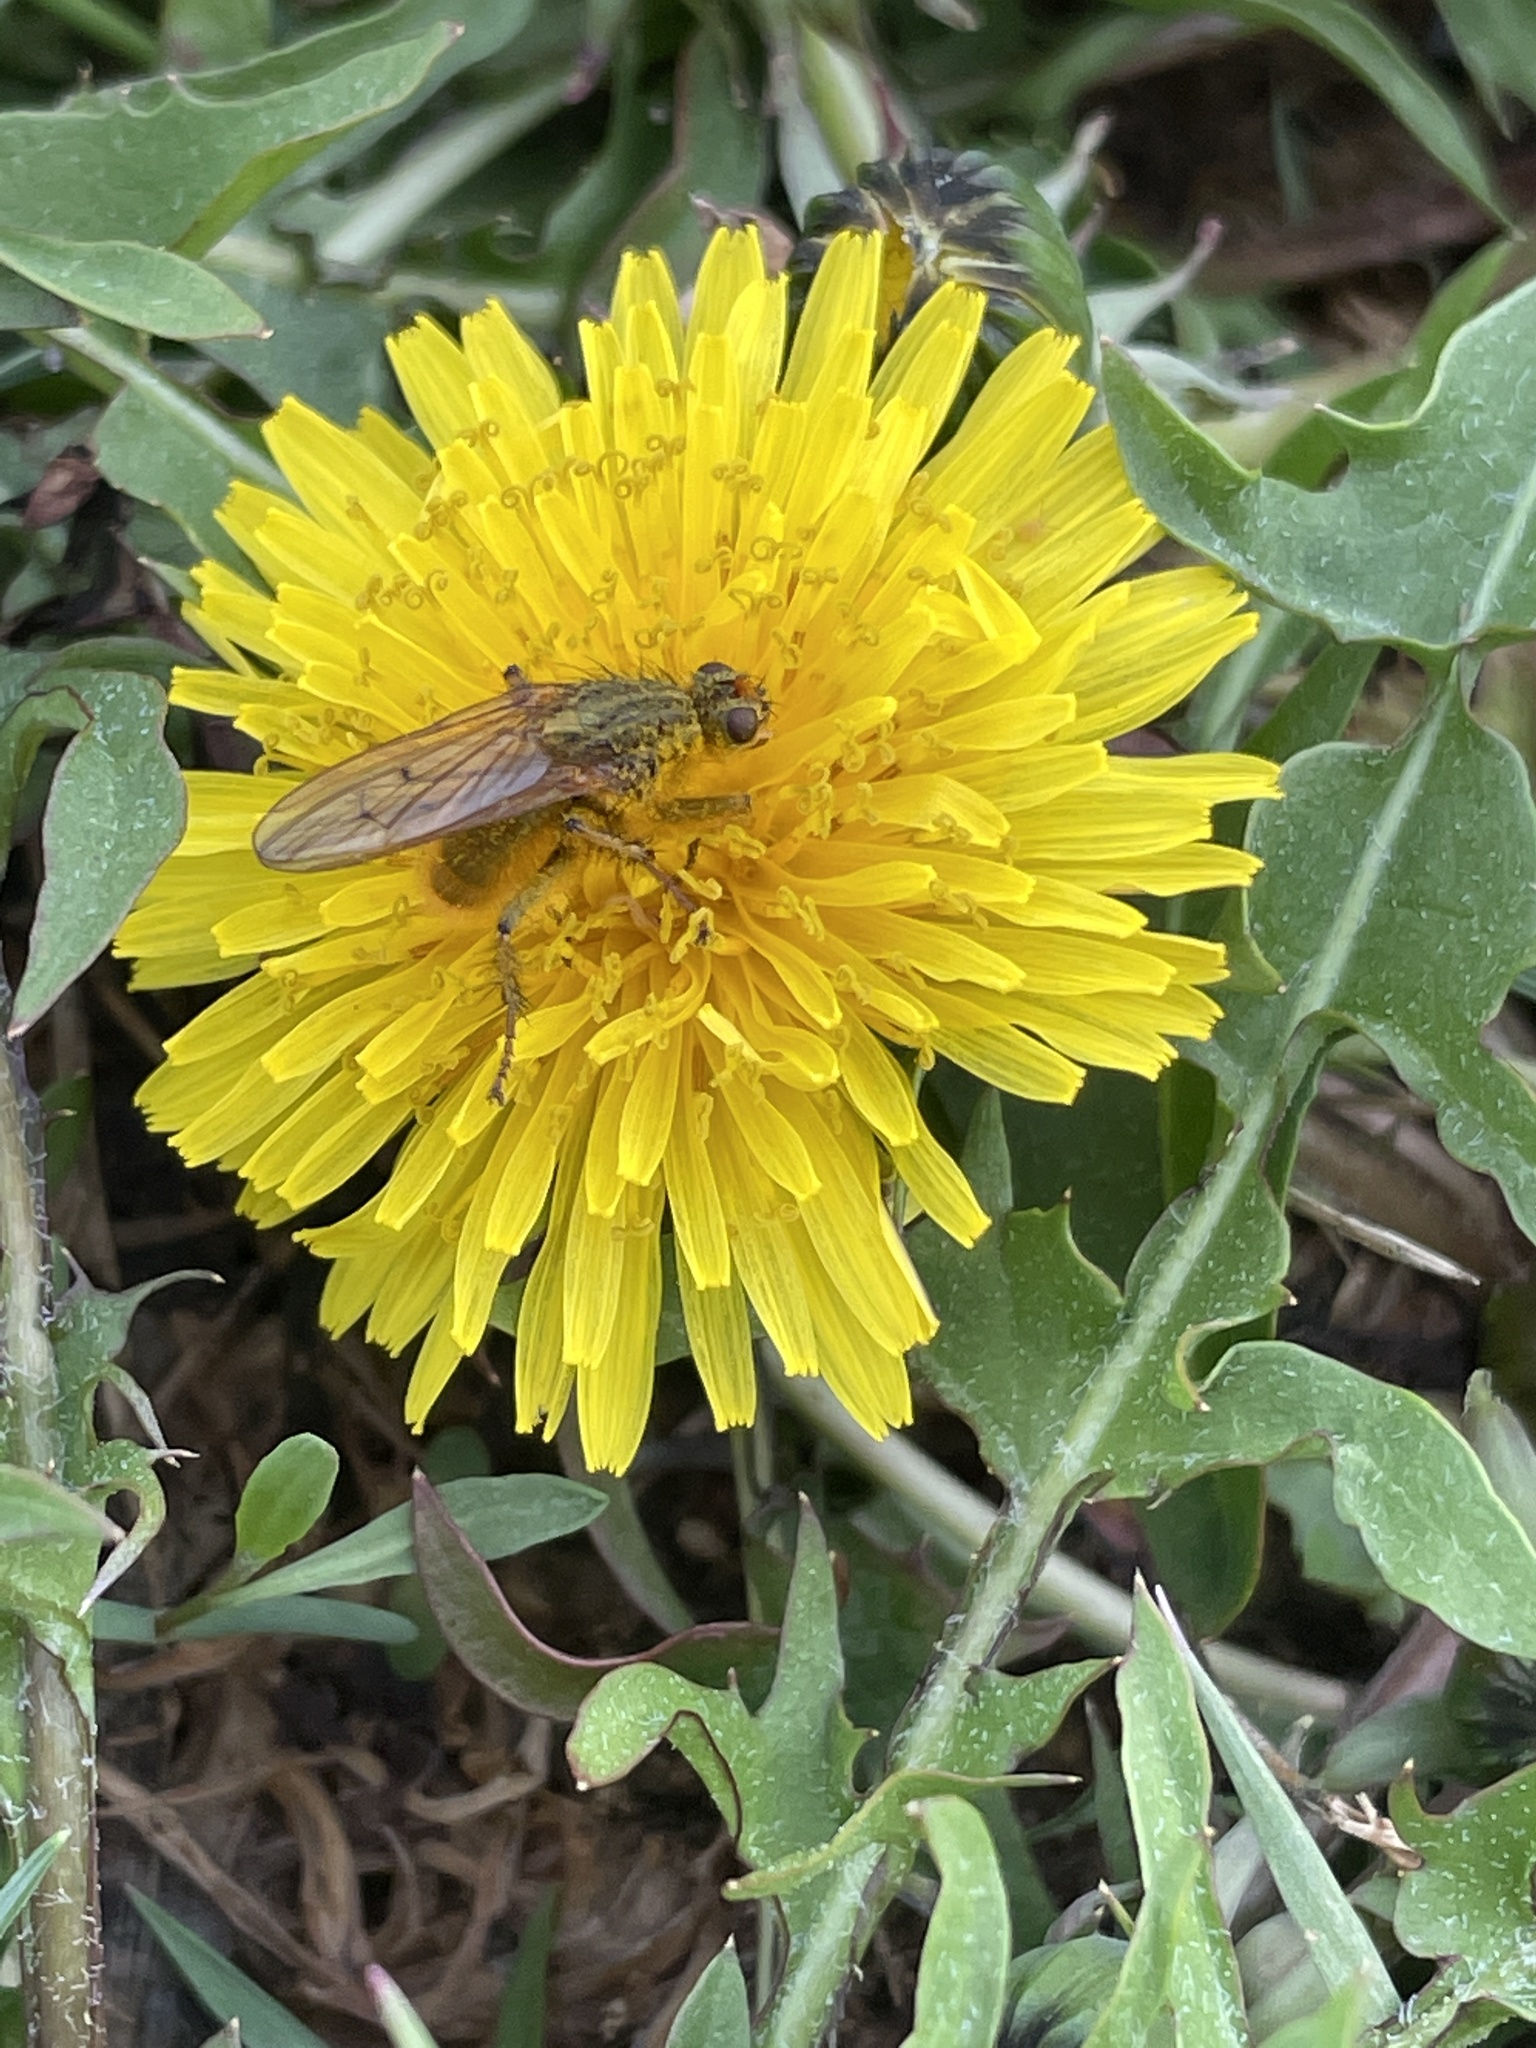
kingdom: Animalia
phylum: Arthropoda
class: Insecta
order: Diptera
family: Scathophagidae
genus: Scathophaga
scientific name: Scathophaga stercoraria
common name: Yellow dung fly
